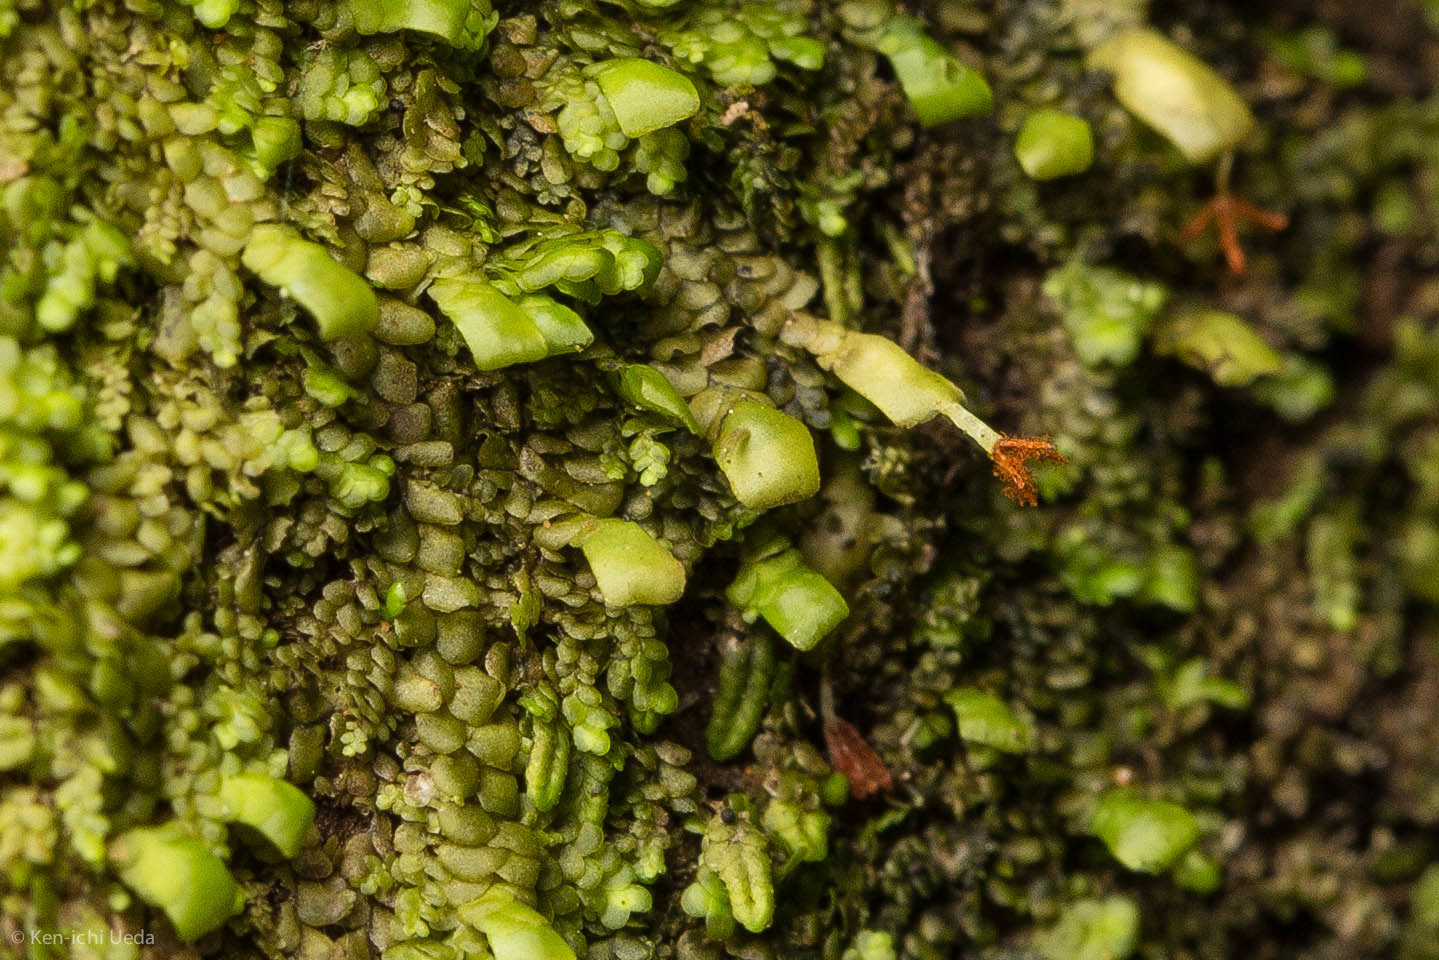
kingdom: Plantae
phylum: Marchantiophyta
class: Jungermanniopsida
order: Porellales
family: Radulaceae
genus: Radula
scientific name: Radula complanata
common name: Flat-leaved scalewort
